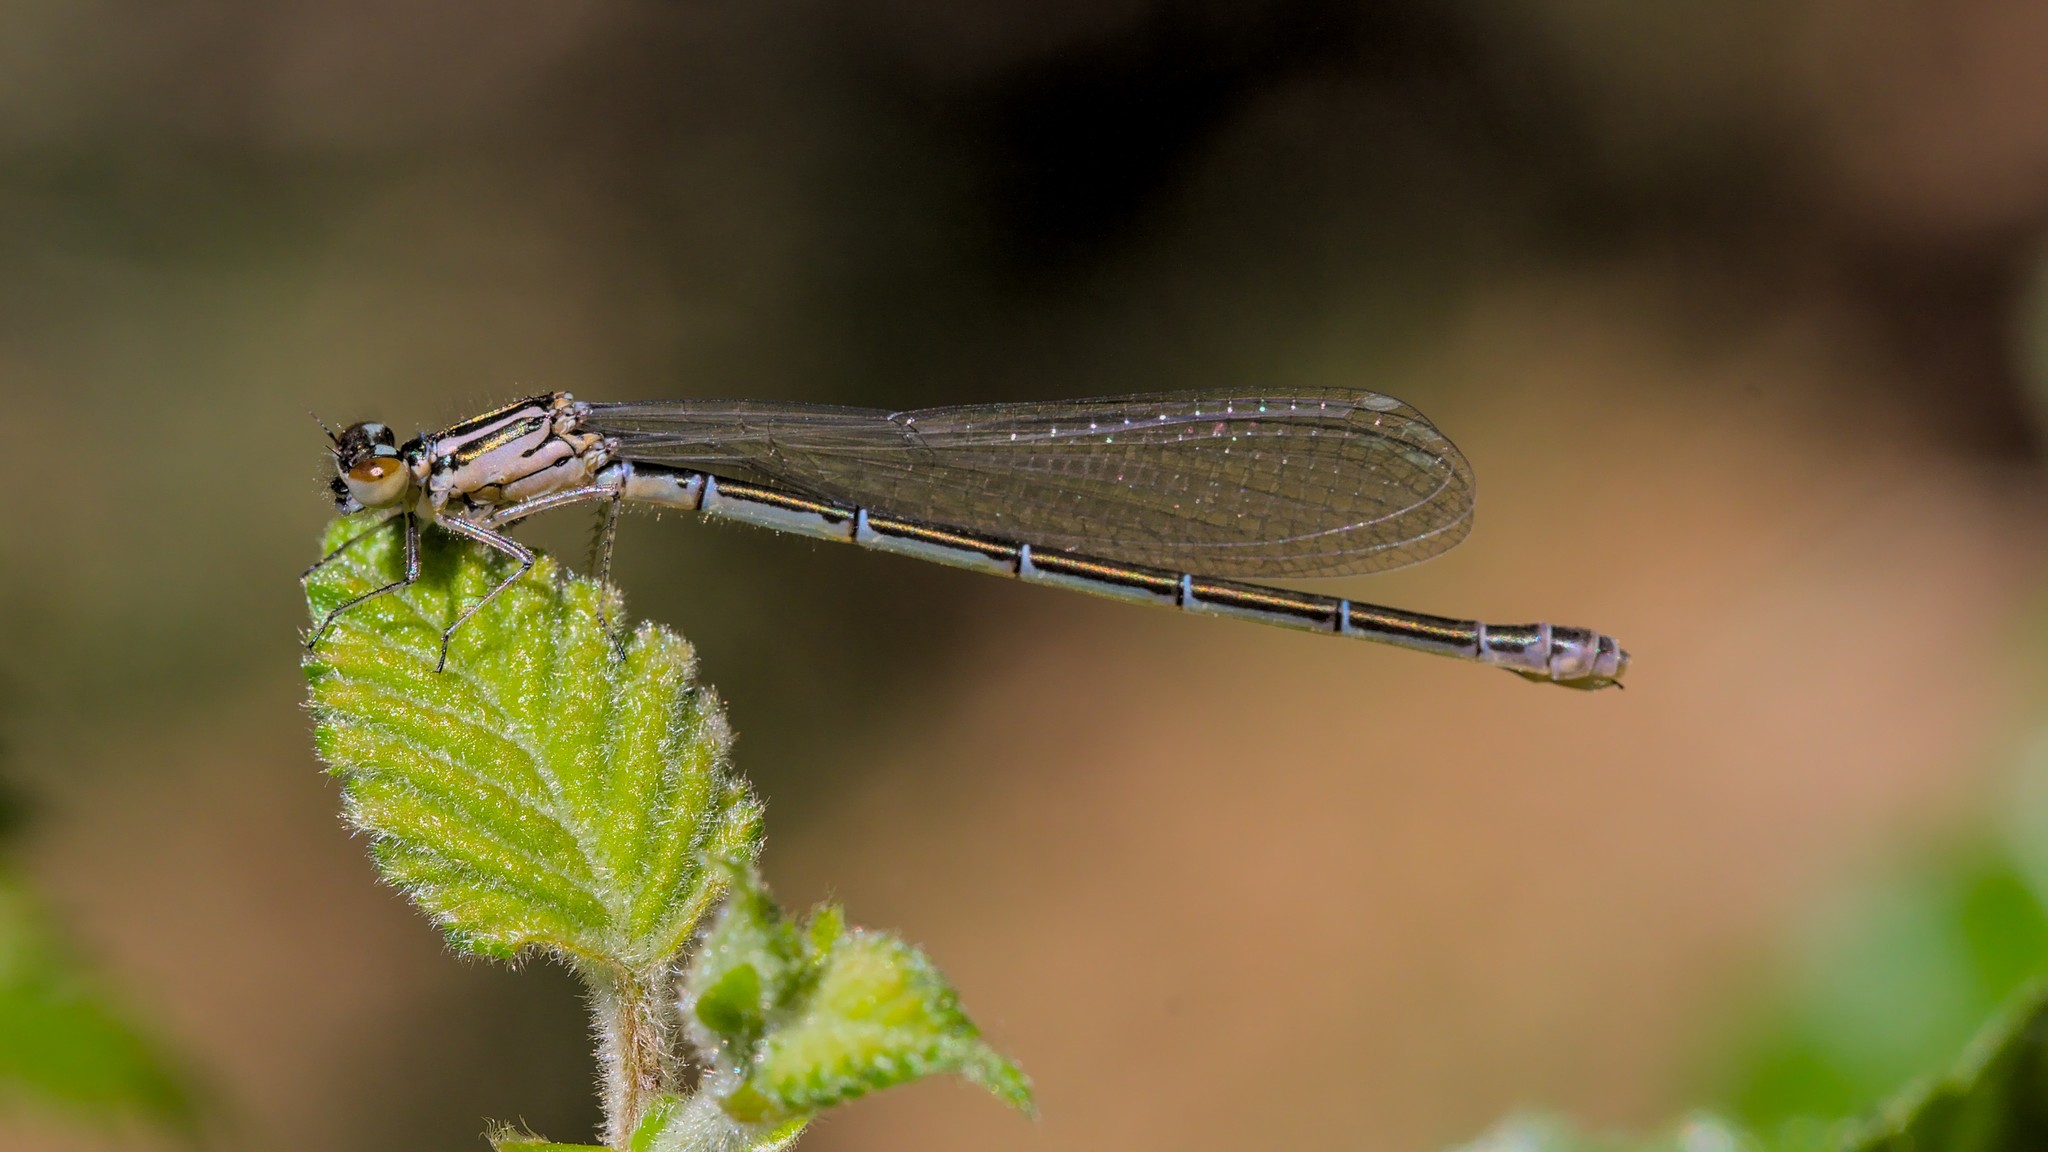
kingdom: Animalia
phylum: Arthropoda
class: Insecta
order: Odonata
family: Coenagrionidae
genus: Coenagrion
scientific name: Coenagrion puella
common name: Azure damselfly
